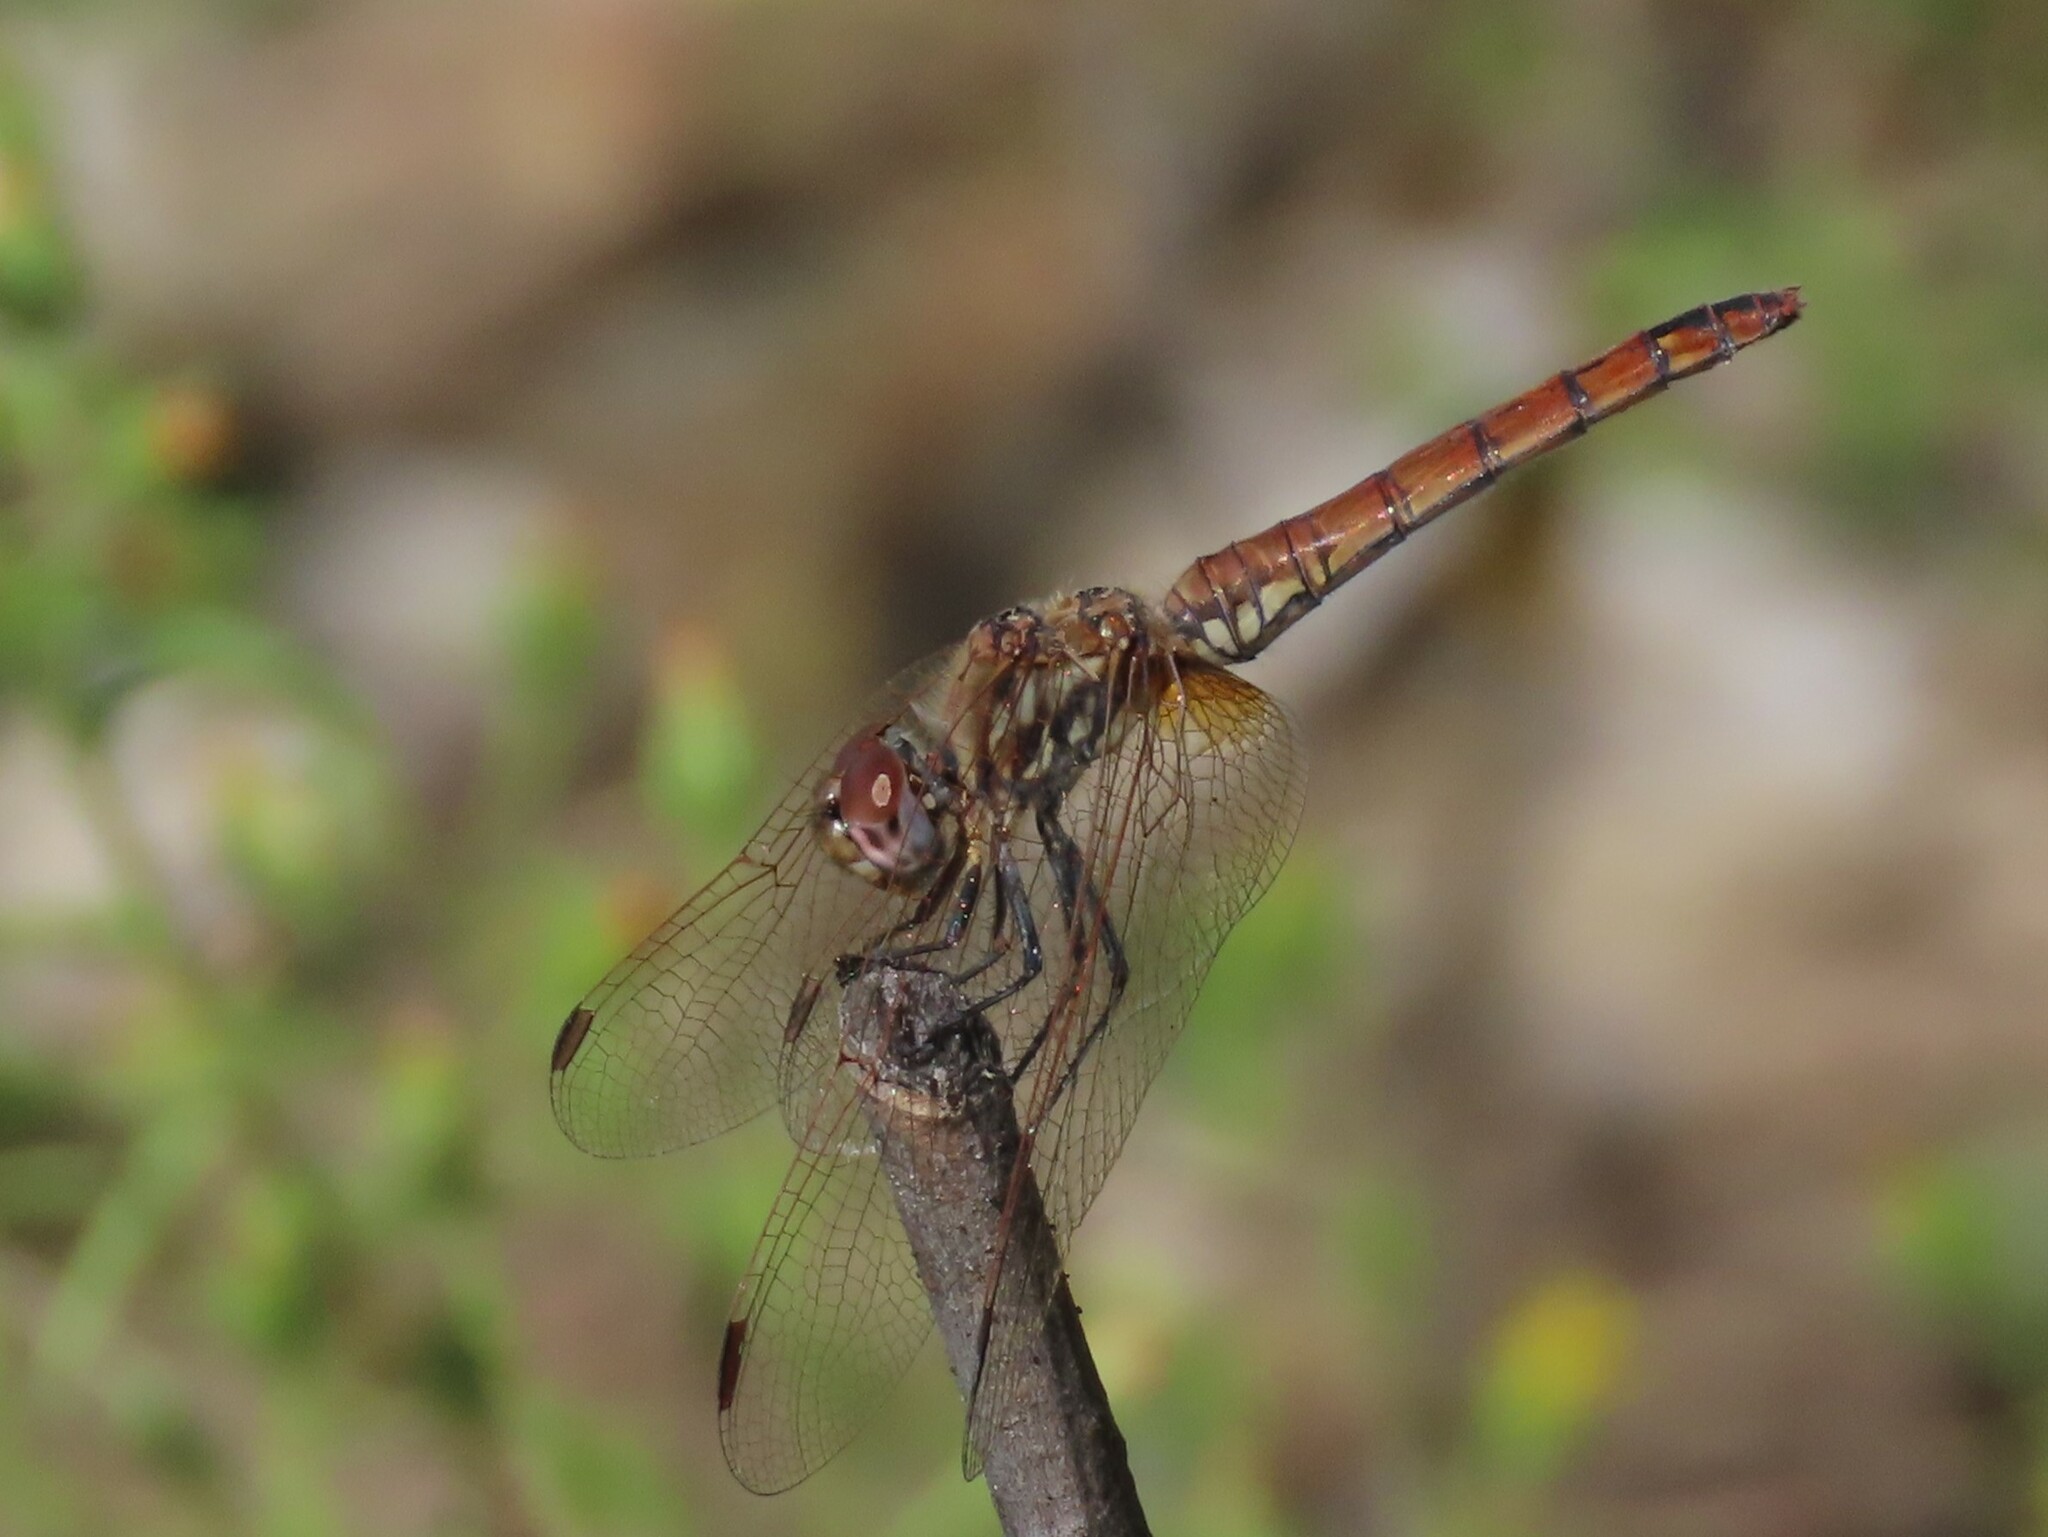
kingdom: Animalia
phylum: Arthropoda
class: Insecta
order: Odonata
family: Libellulidae
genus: Trithemis
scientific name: Trithemis annulata
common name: Violet dropwing
